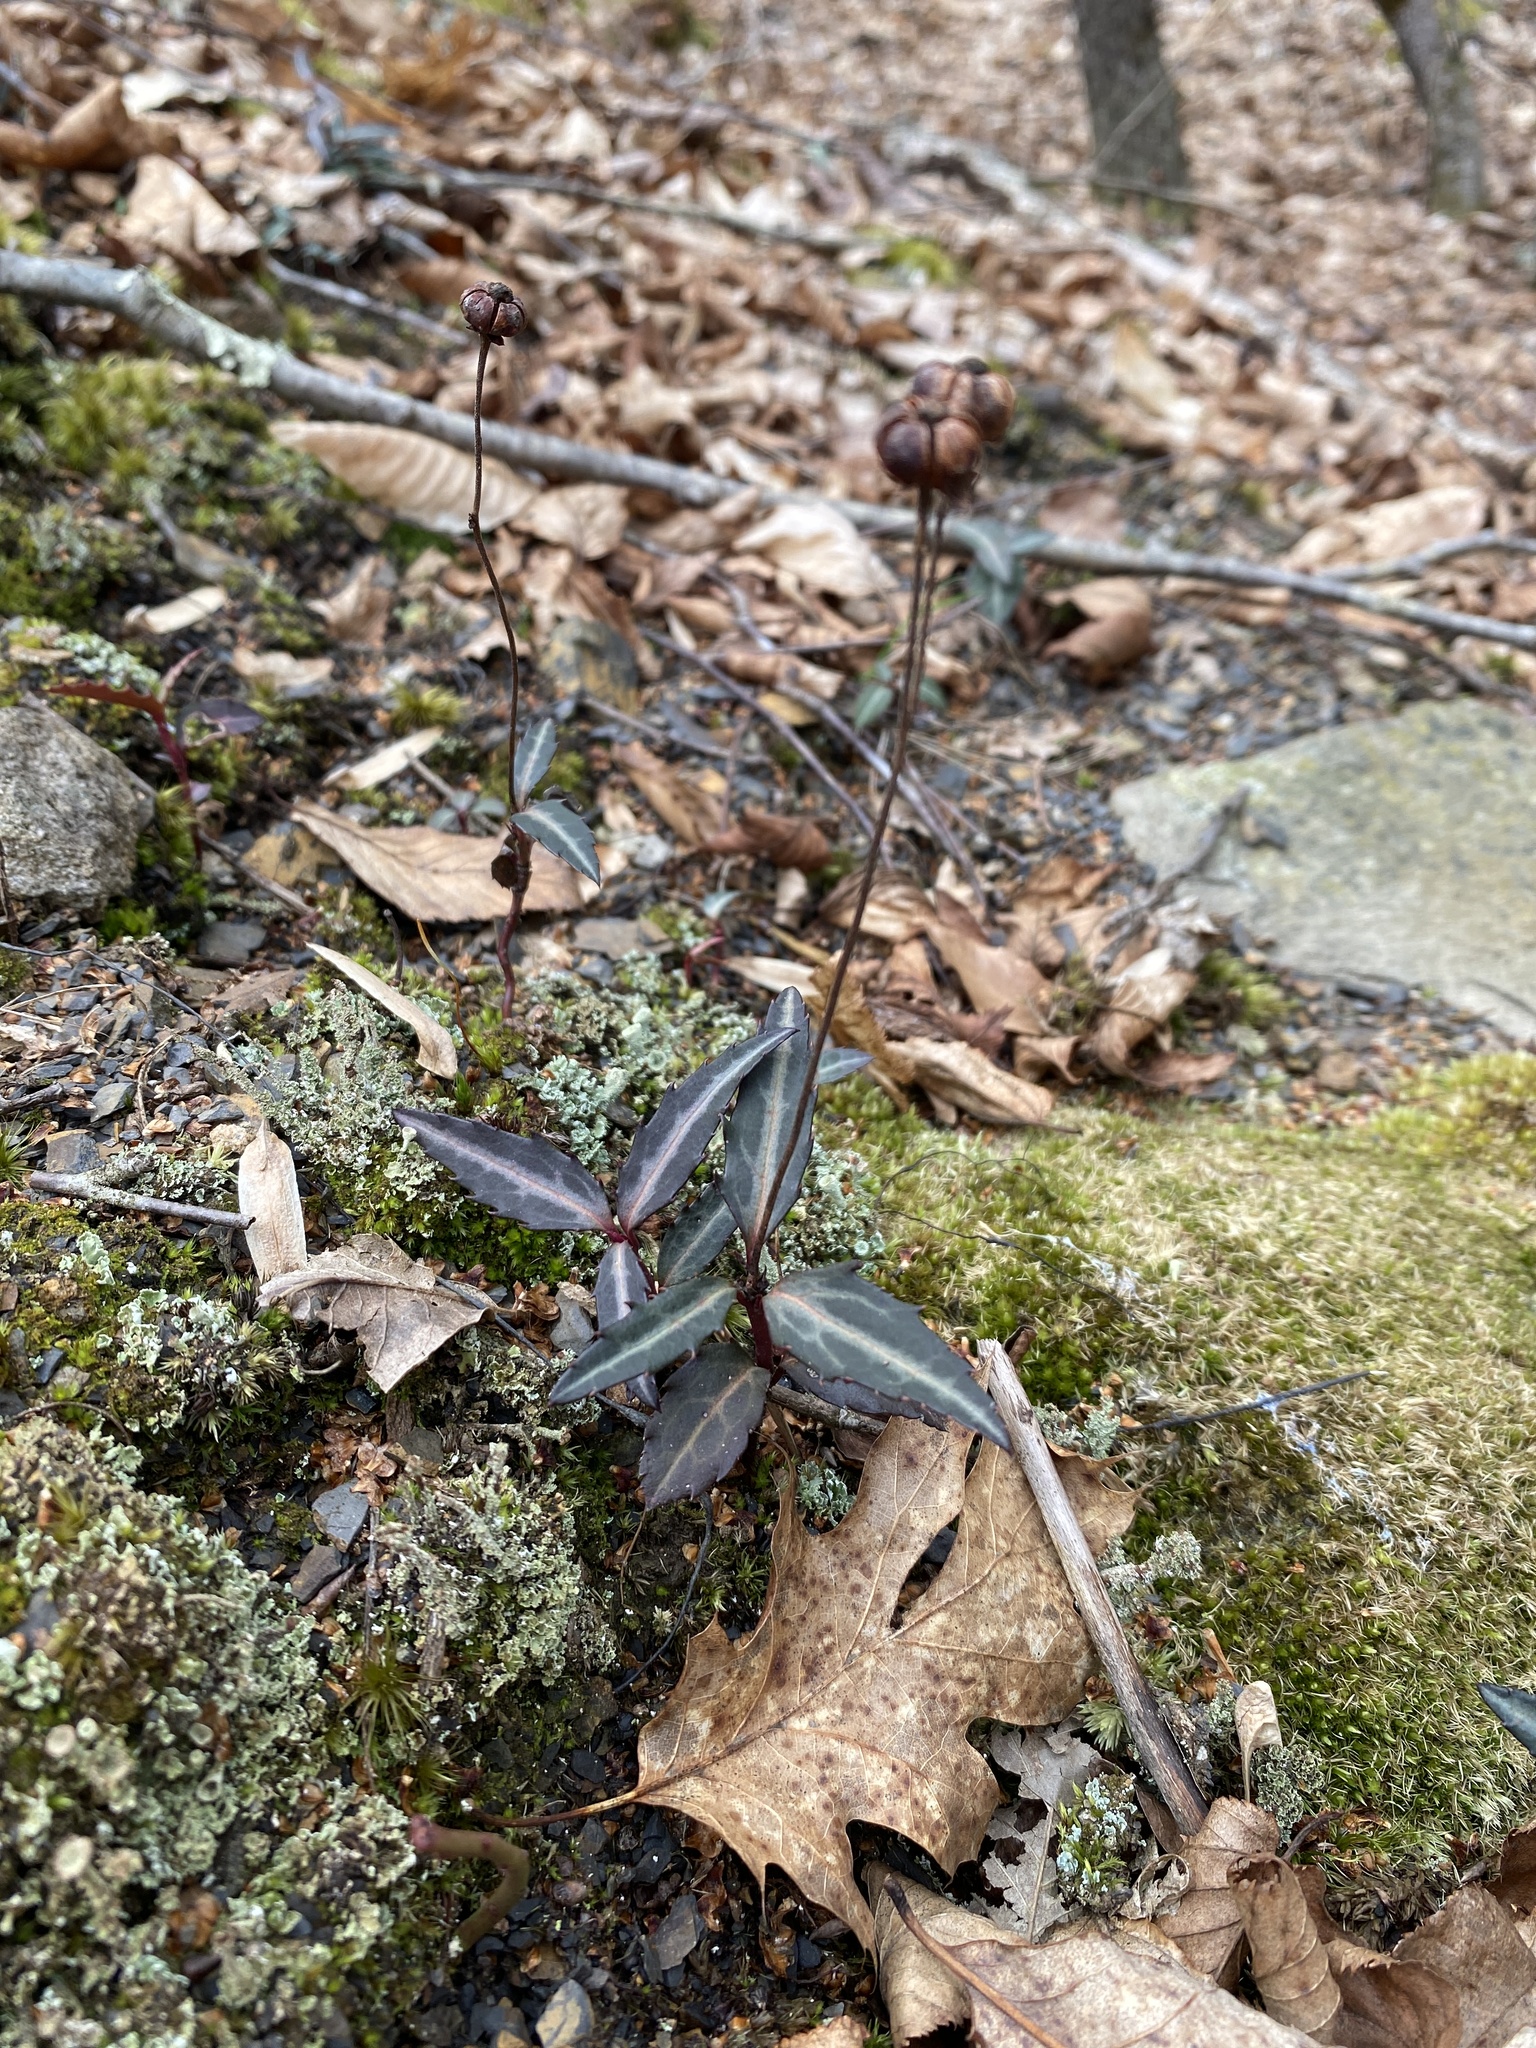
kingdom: Plantae
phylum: Tracheophyta
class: Magnoliopsida
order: Ericales
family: Ericaceae
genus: Chimaphila
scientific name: Chimaphila maculata
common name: Spotted pipsissewa
